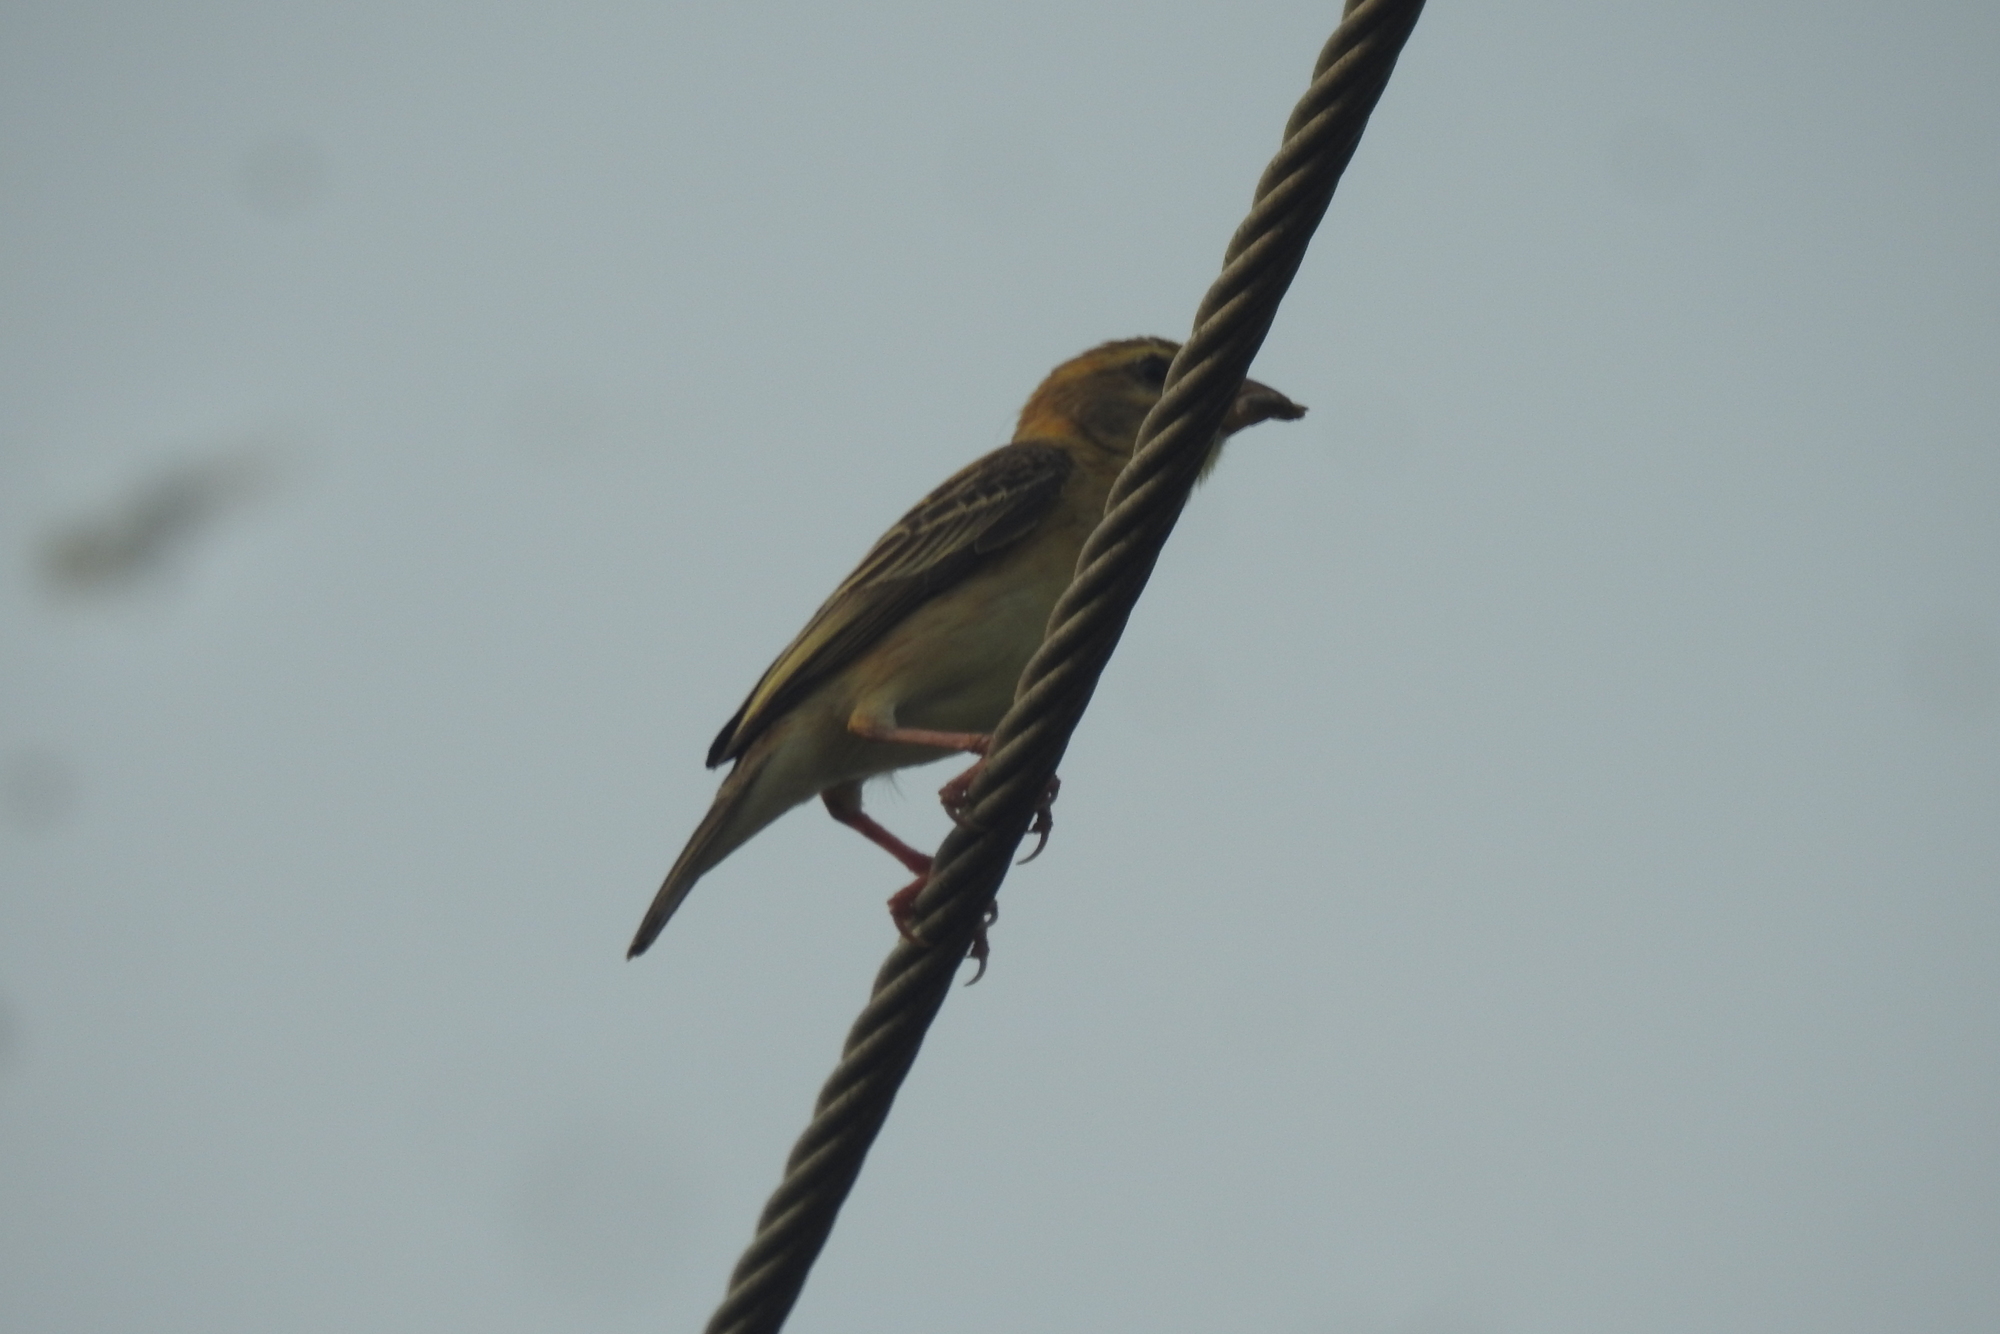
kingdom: Animalia
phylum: Chordata
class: Aves
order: Passeriformes
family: Ploceidae
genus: Ploceus
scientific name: Ploceus philippinus
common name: Baya weaver
